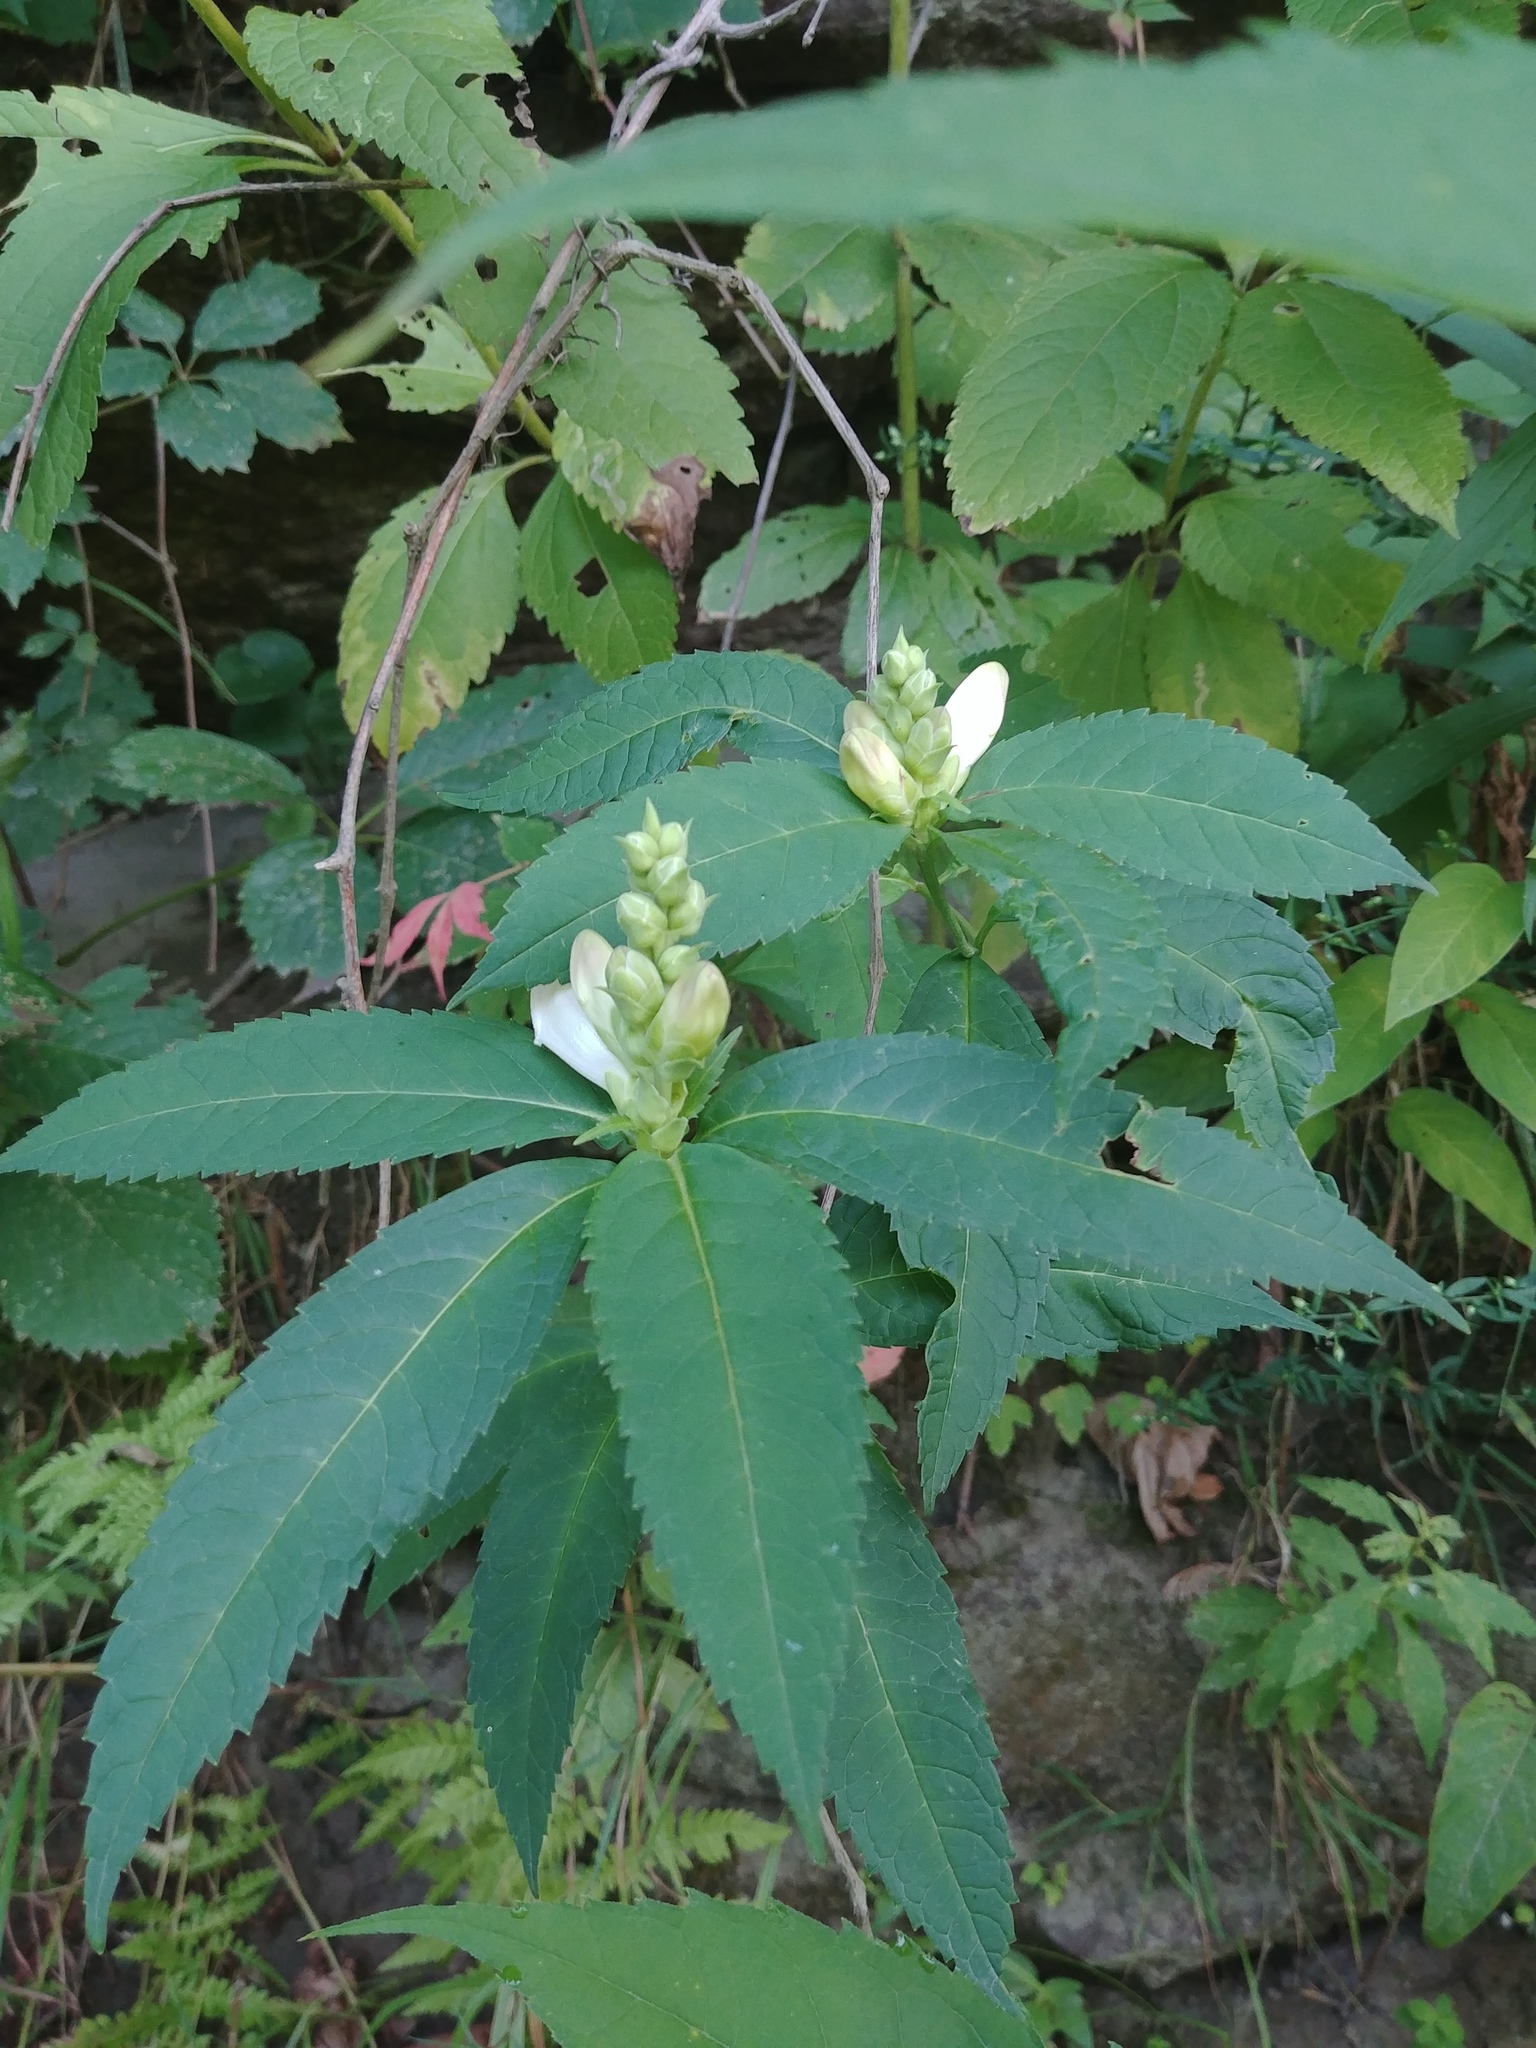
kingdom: Plantae
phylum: Tracheophyta
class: Magnoliopsida
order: Lamiales
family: Plantaginaceae
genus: Chelone
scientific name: Chelone glabra
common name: Snakehead
